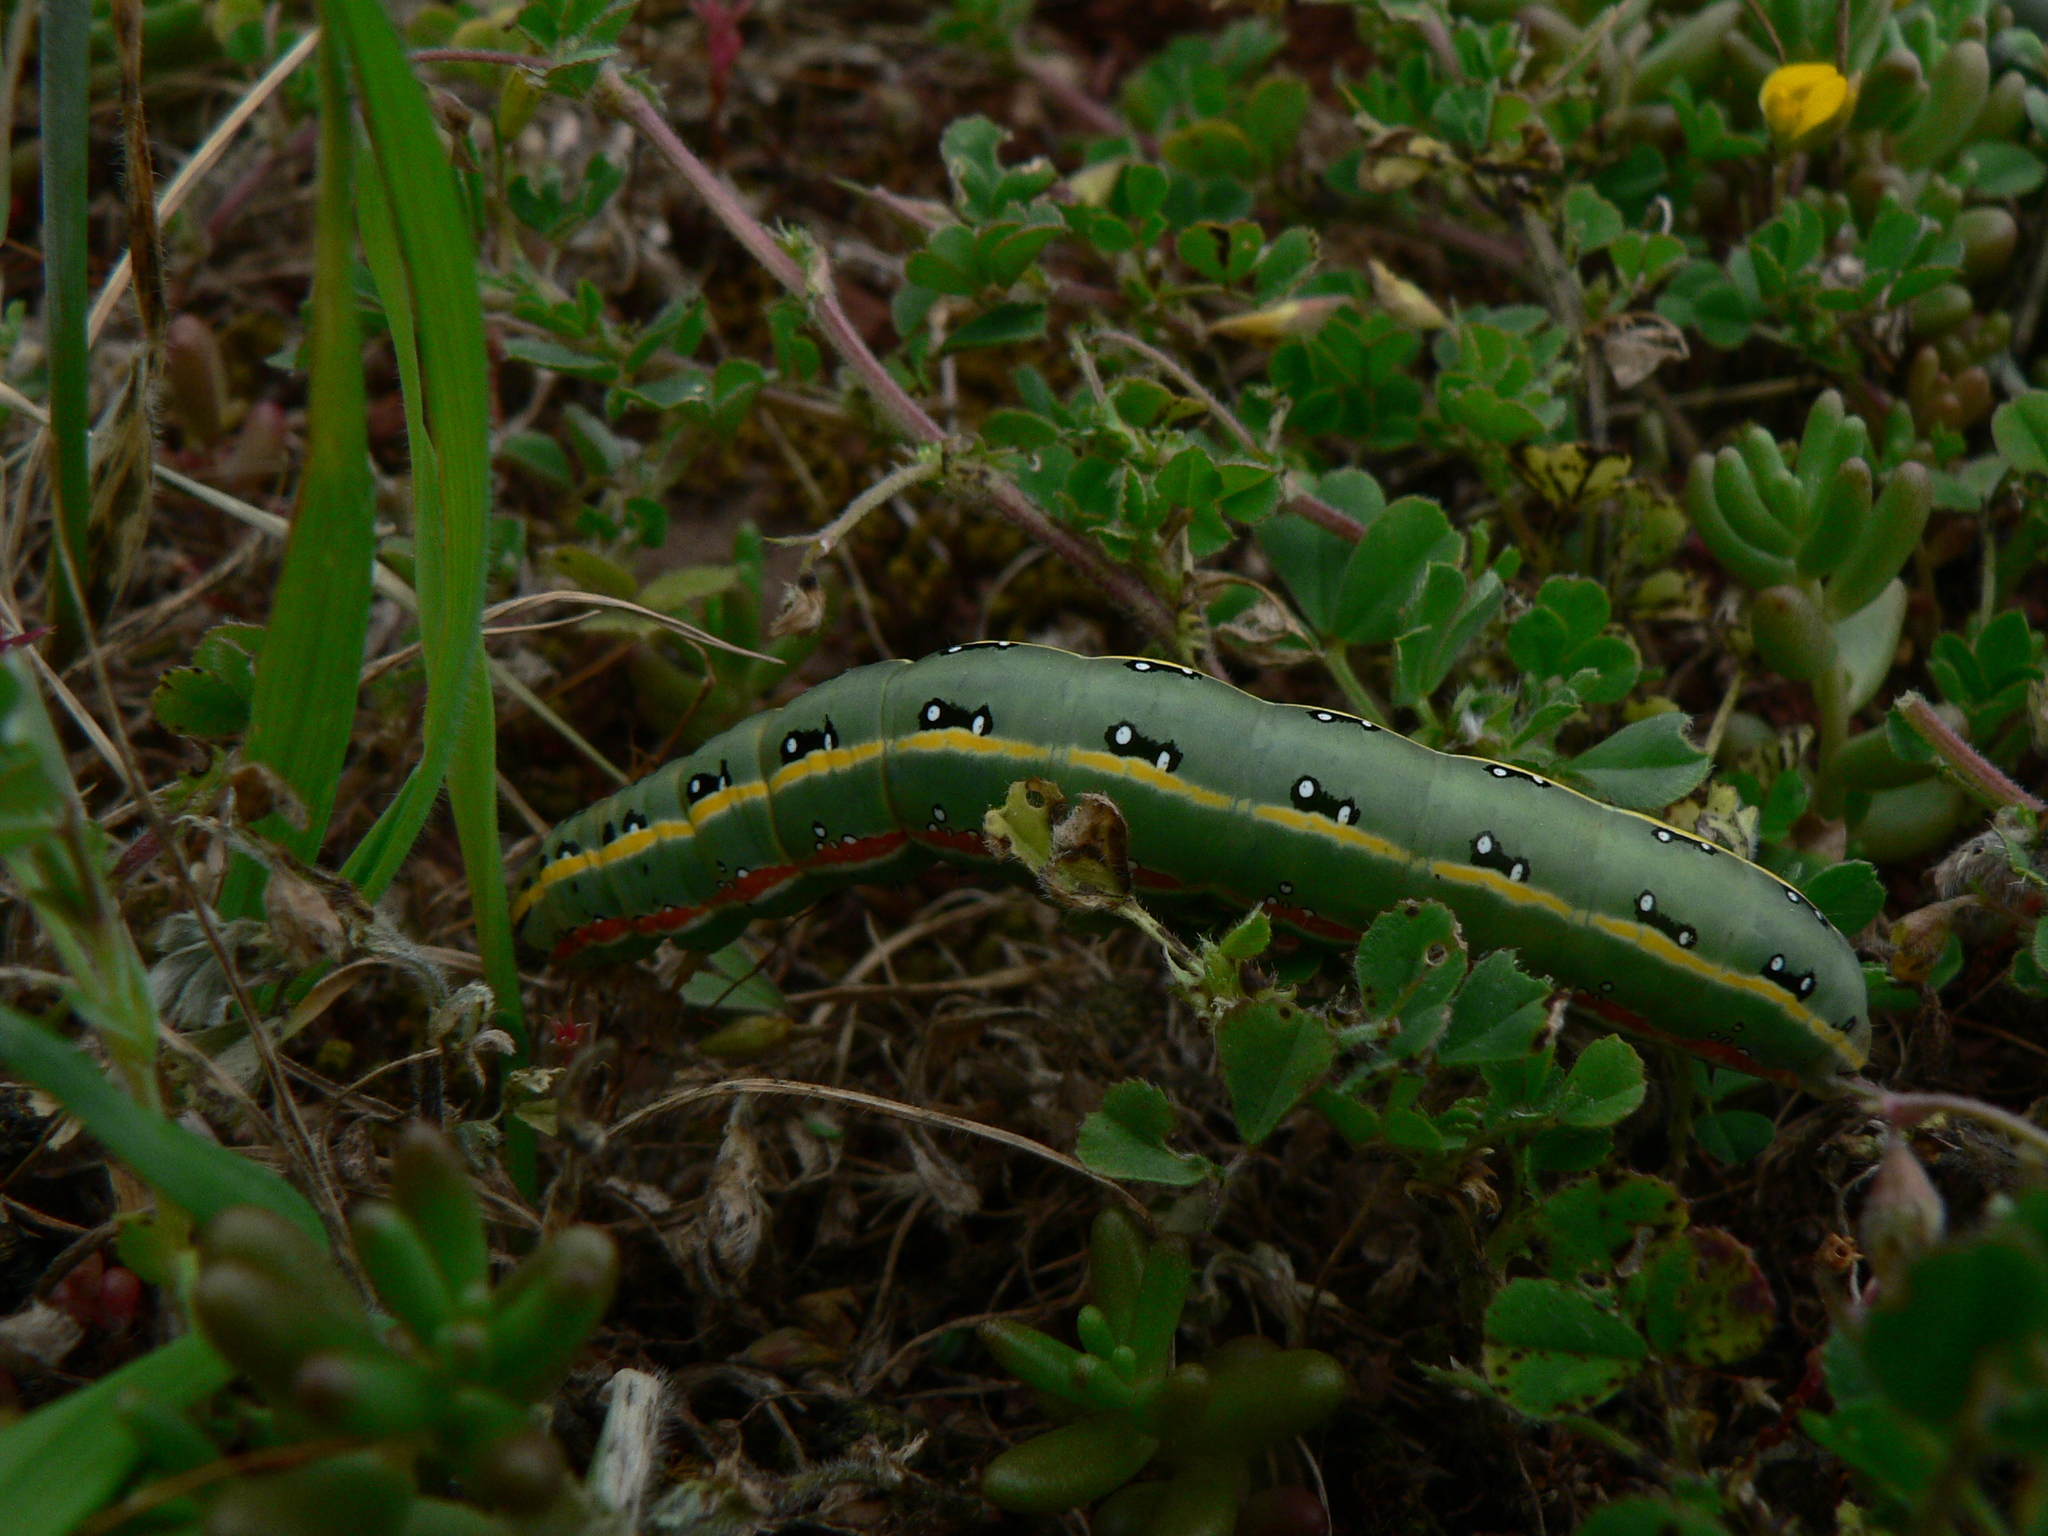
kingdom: Animalia
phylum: Arthropoda
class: Insecta
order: Lepidoptera
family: Noctuidae
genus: Xylena
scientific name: Xylena exsoleta
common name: Sword-grass
